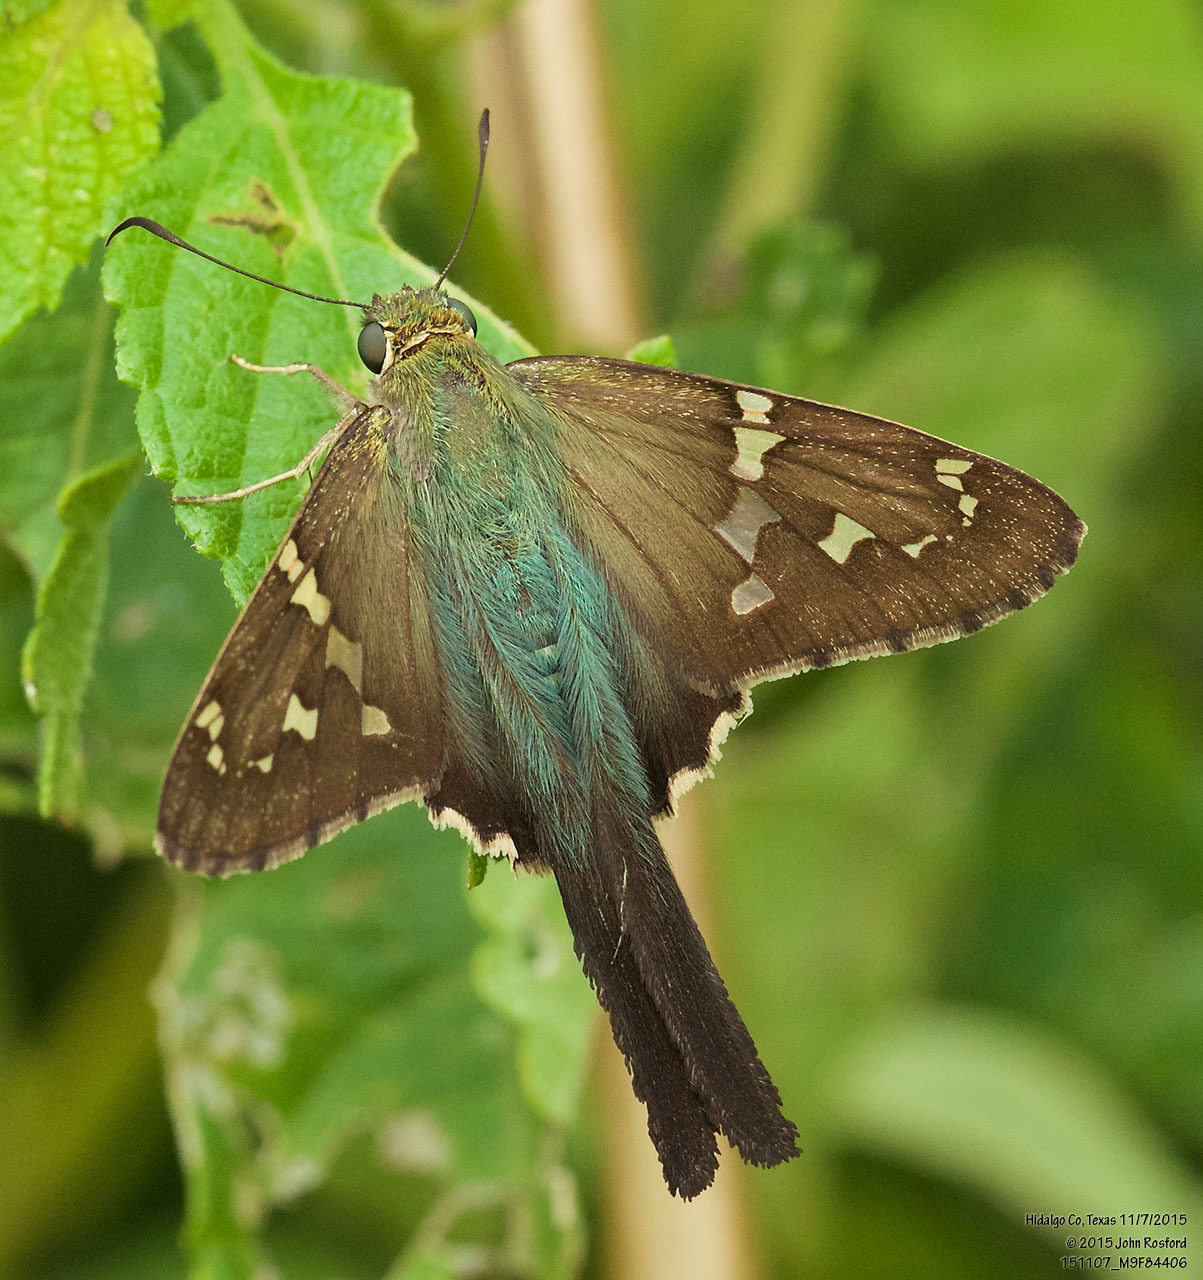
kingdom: Animalia
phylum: Arthropoda
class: Insecta
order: Lepidoptera
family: Hesperiidae
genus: Urbanus
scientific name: Urbanus proteus
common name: Long-tailed skipper
